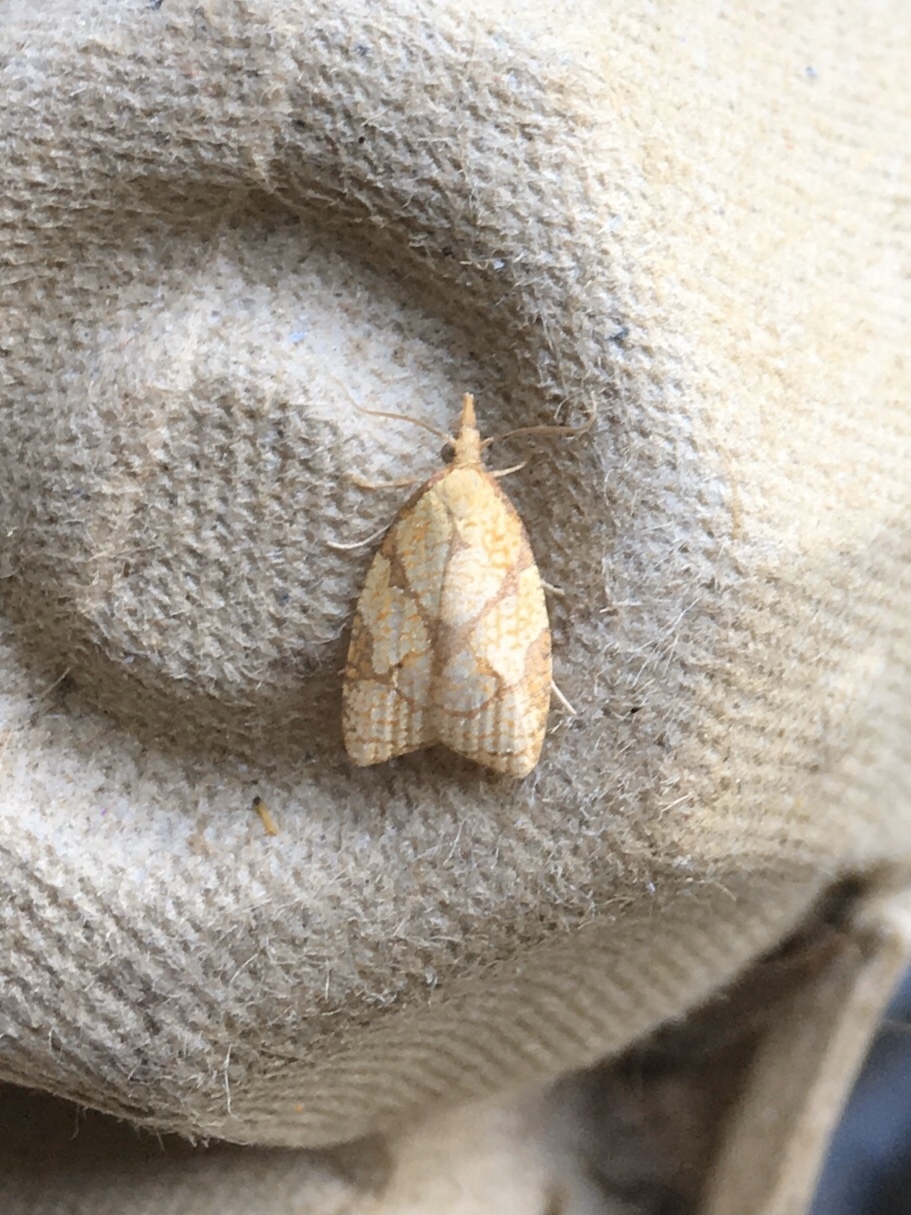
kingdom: Animalia
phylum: Arthropoda
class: Insecta
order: Lepidoptera
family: Tortricidae
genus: Cenopis
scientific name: Cenopis reticulatana
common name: Reticulated fruitworm moth
